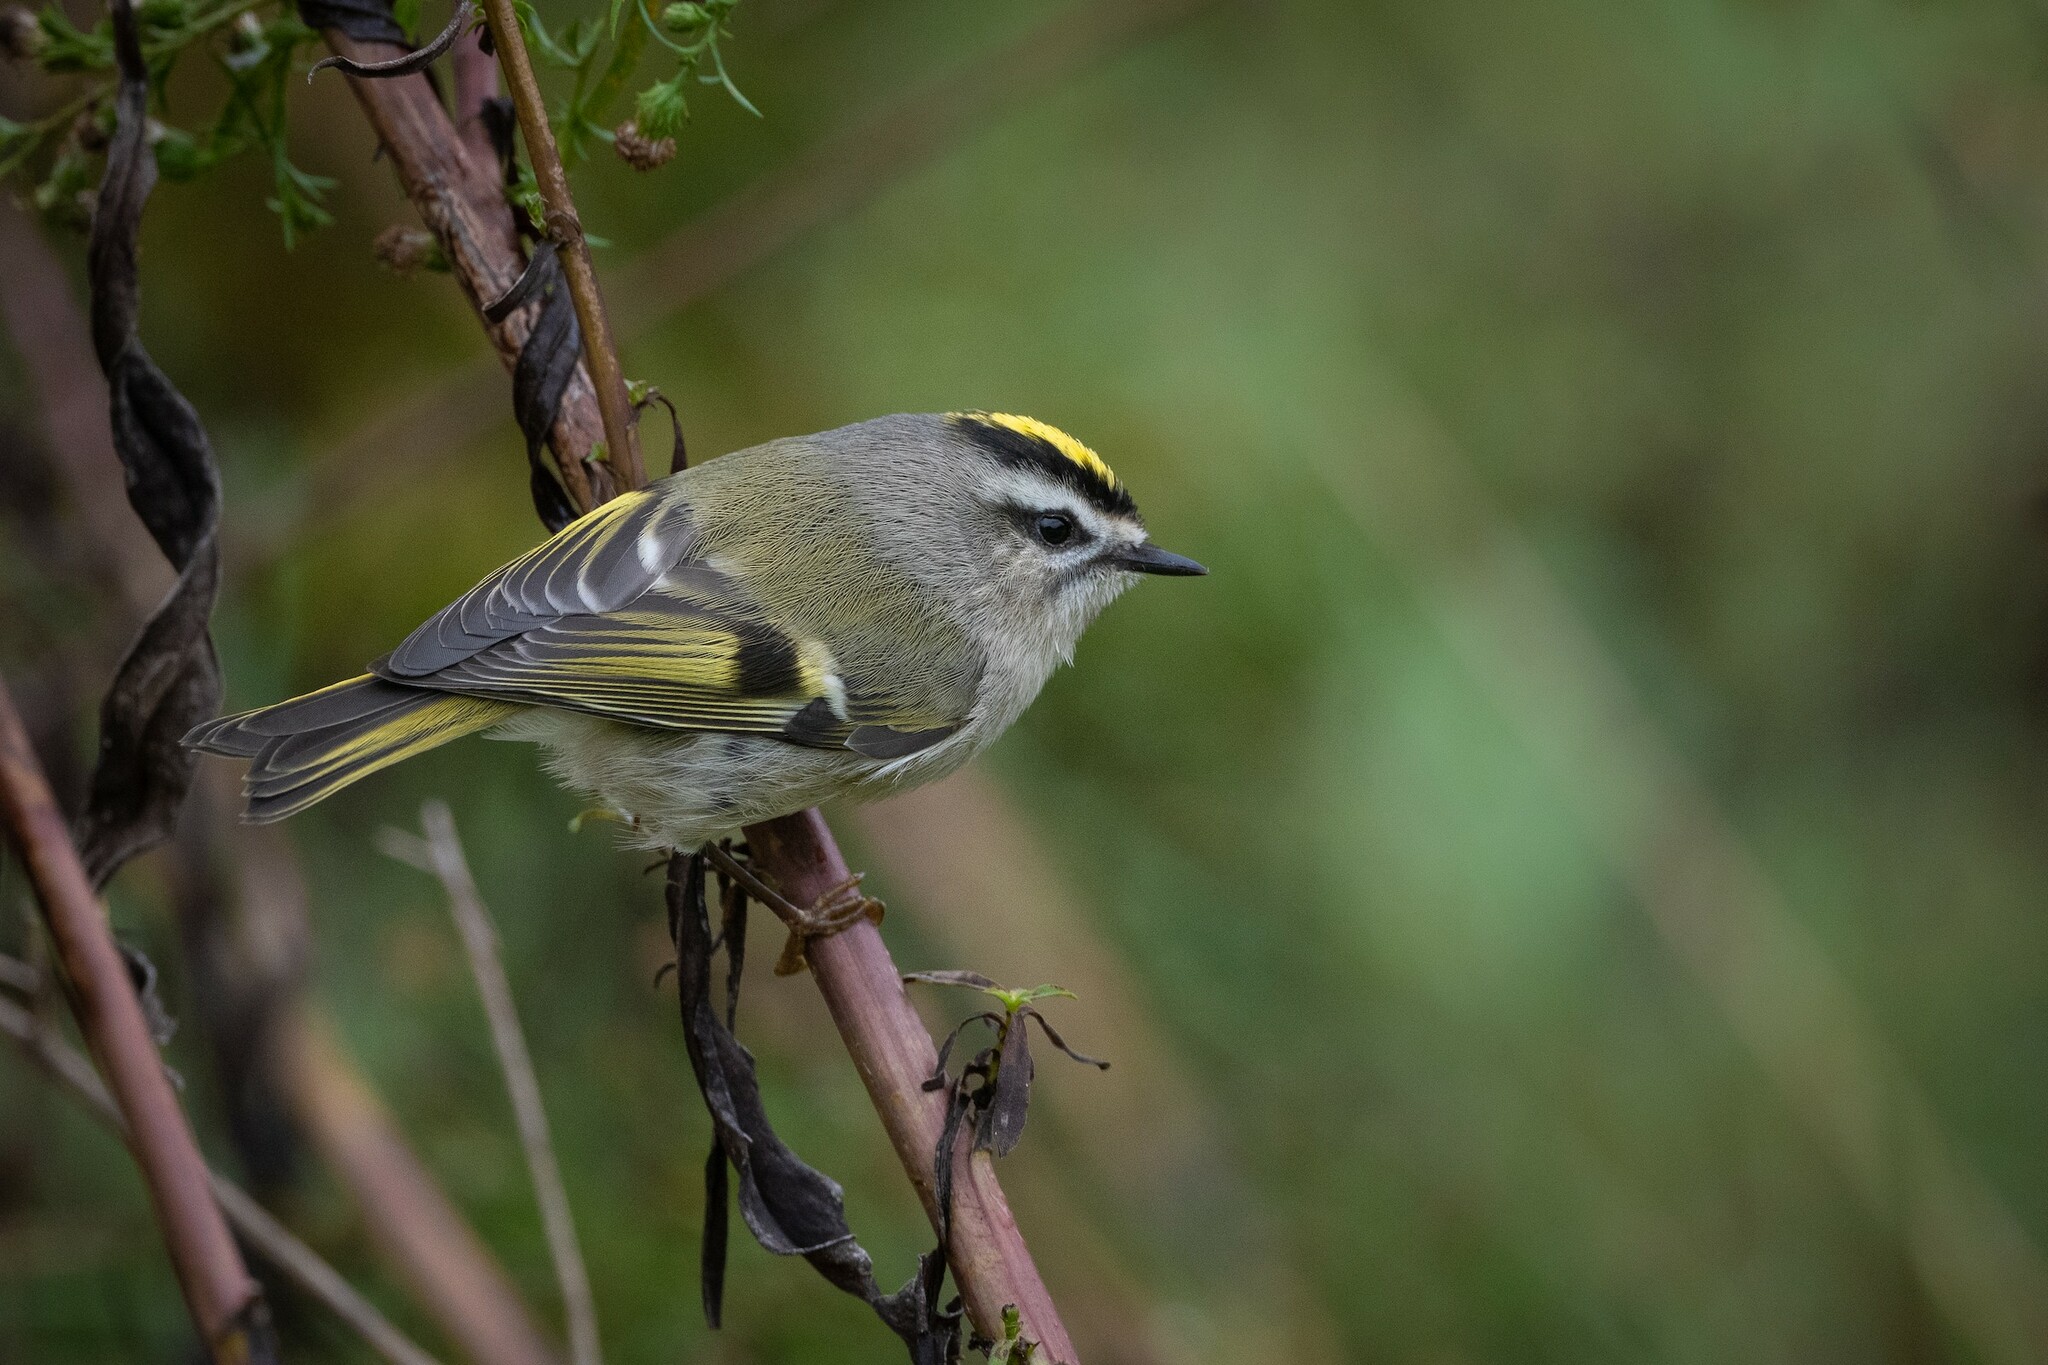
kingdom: Animalia
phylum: Chordata
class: Aves
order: Passeriformes
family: Regulidae
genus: Regulus
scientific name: Regulus satrapa
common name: Golden-crowned kinglet
